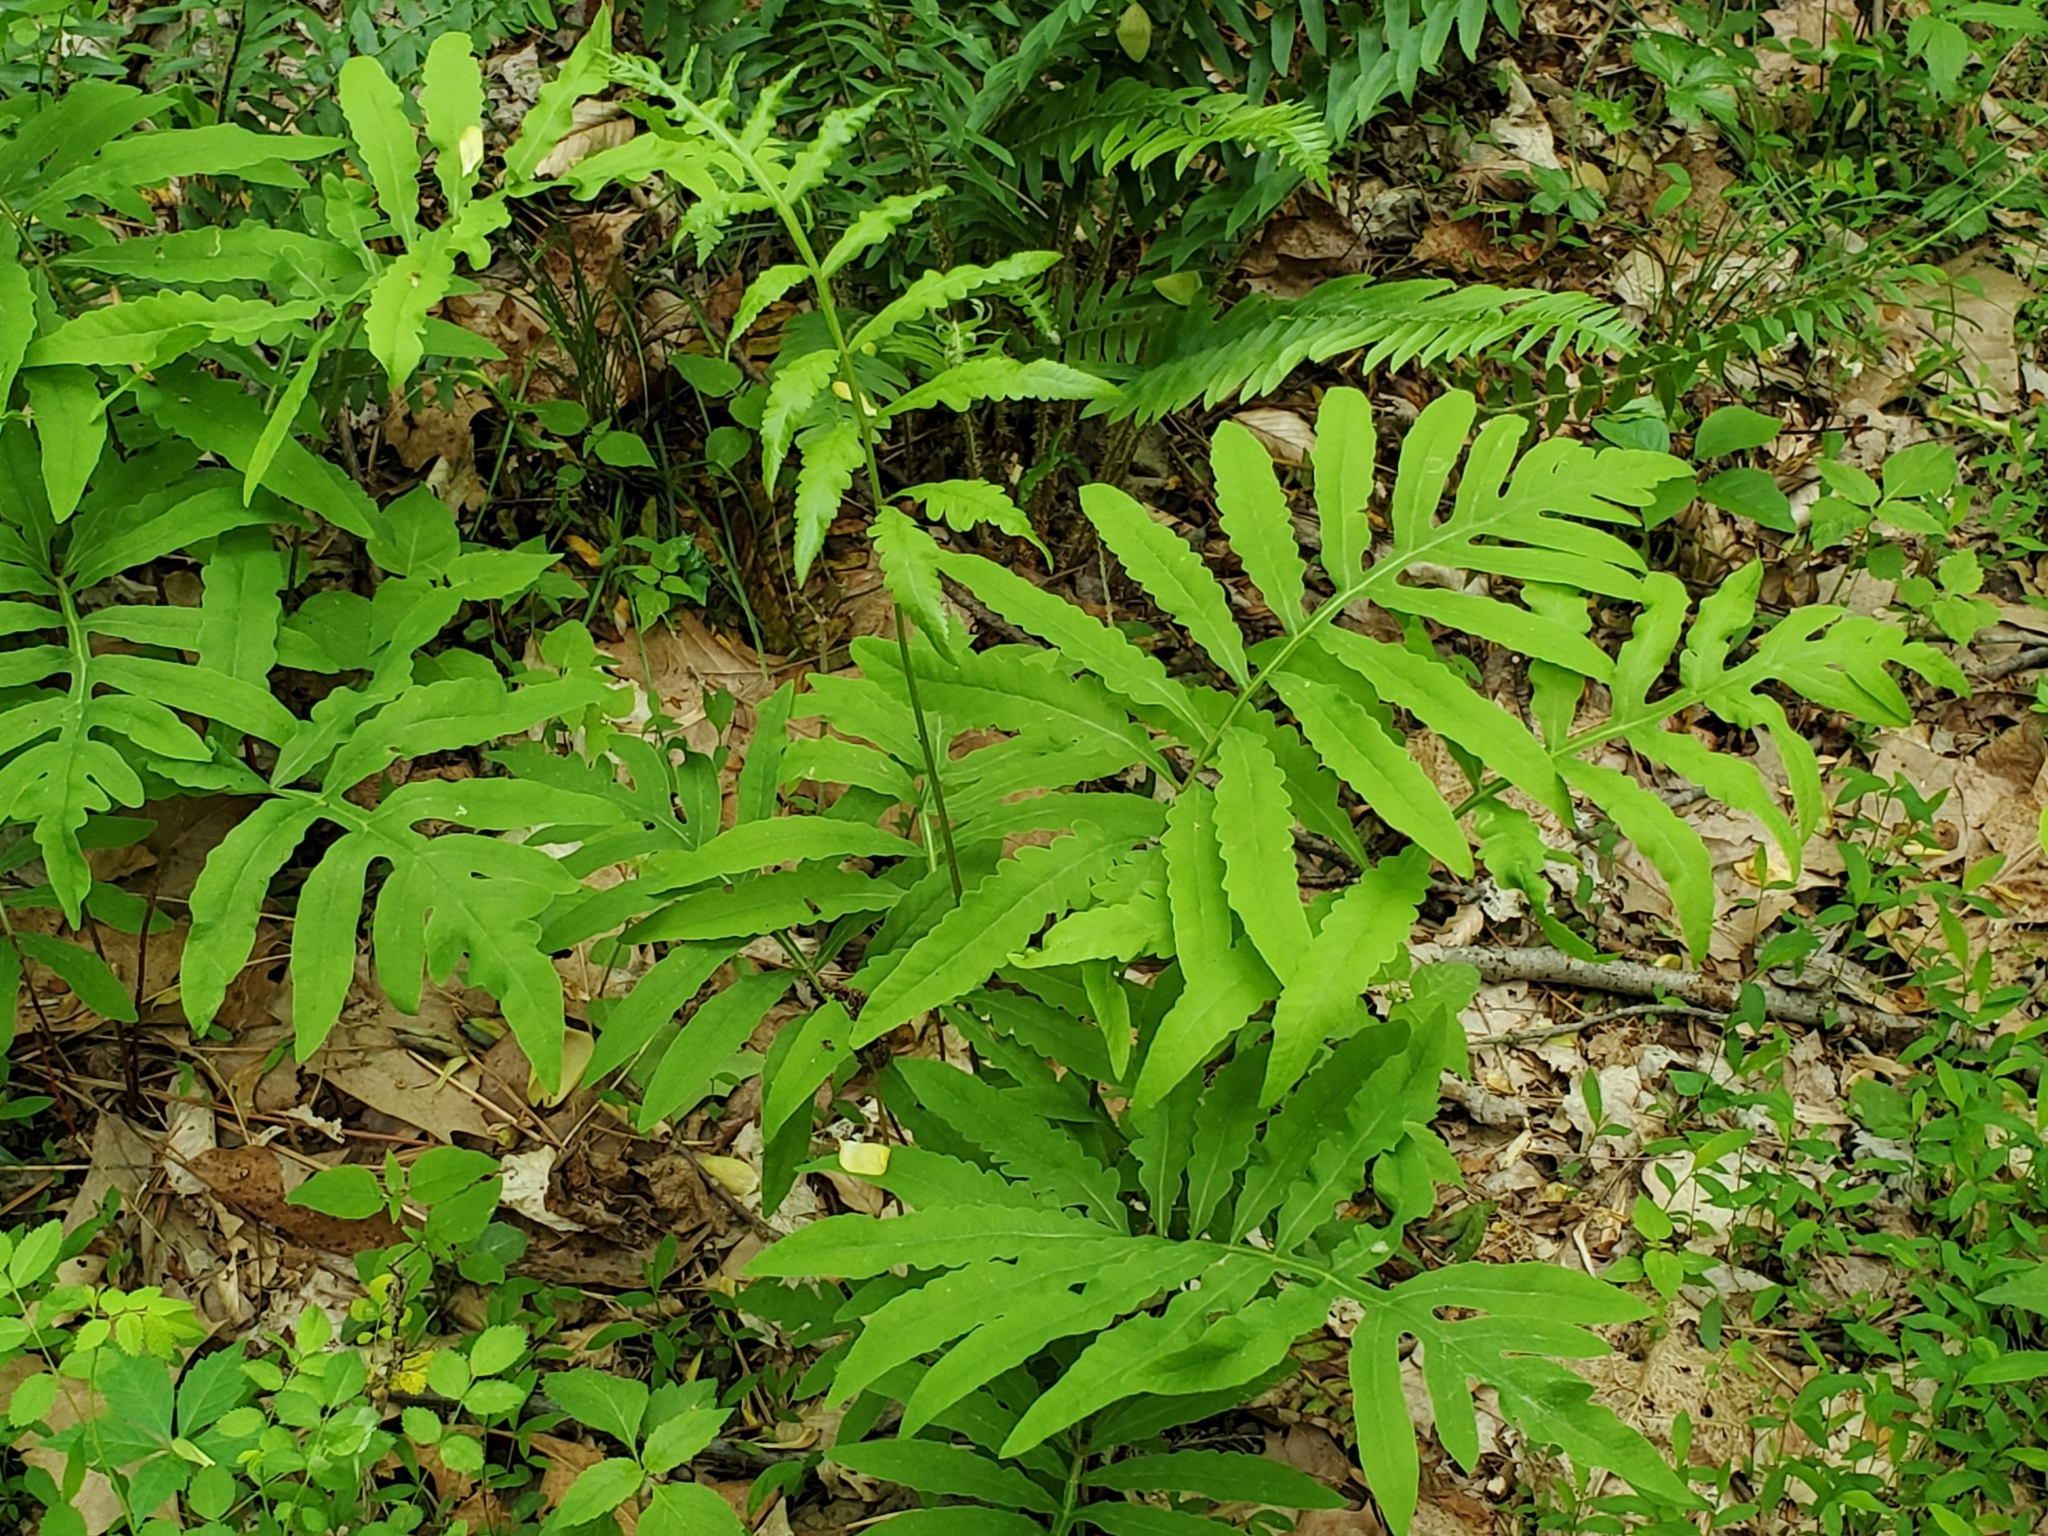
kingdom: Plantae
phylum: Tracheophyta
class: Polypodiopsida
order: Polypodiales
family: Onocleaceae
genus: Onoclea
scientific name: Onoclea sensibilis
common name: Sensitive fern
